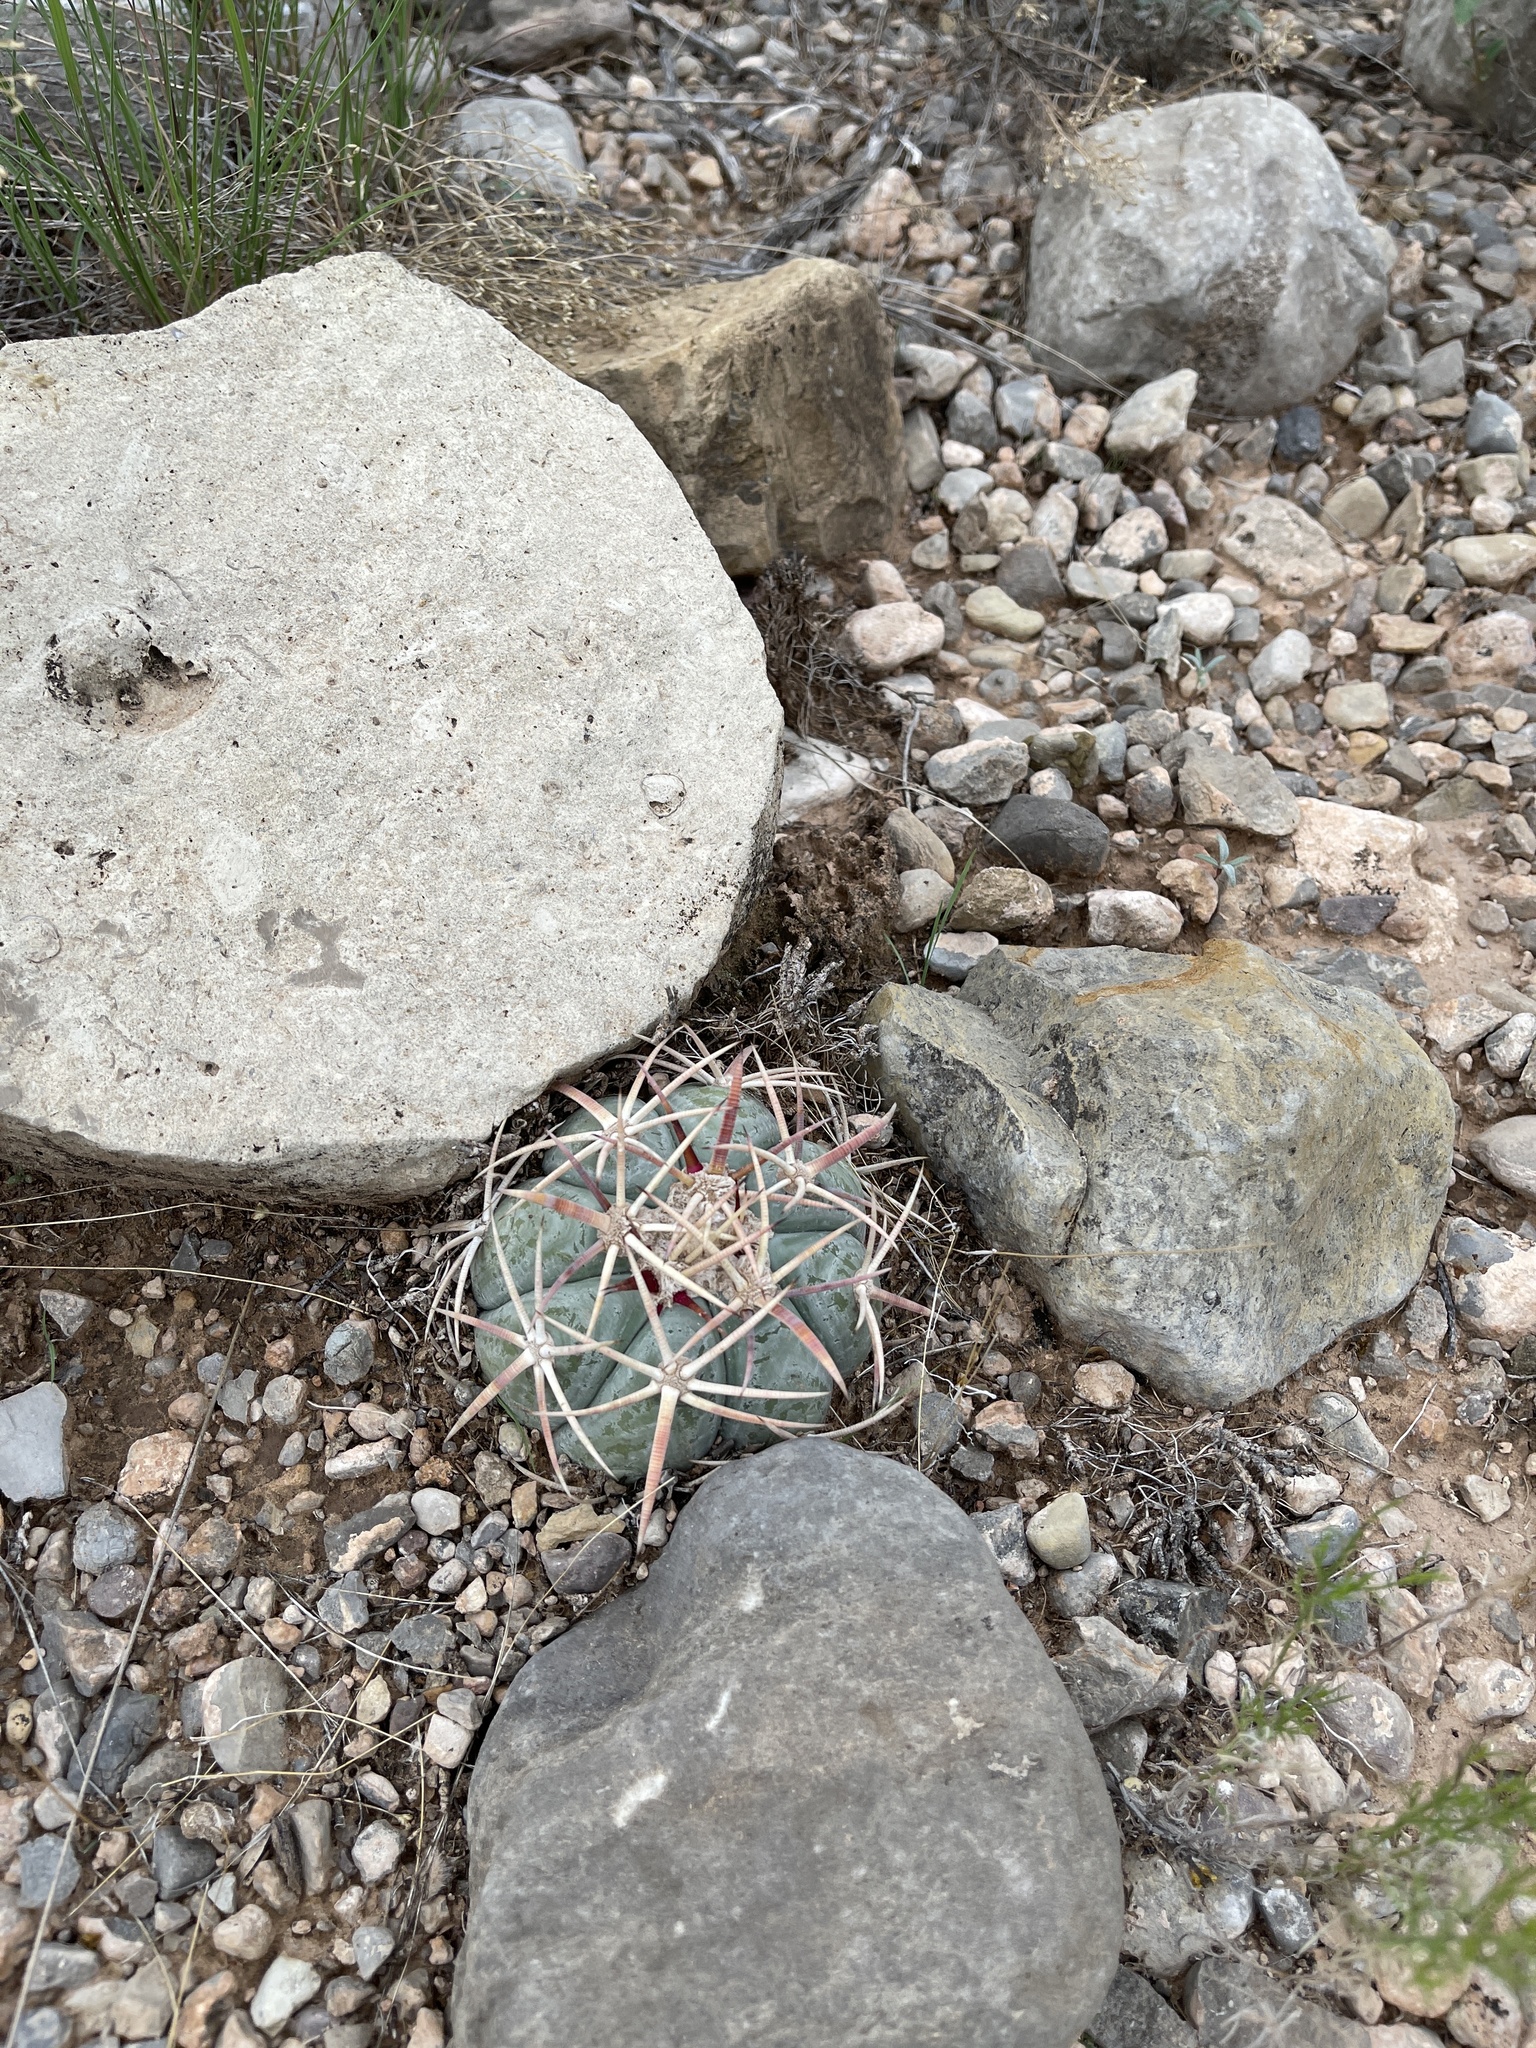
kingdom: Plantae
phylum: Tracheophyta
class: Magnoliopsida
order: Caryophyllales
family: Cactaceae
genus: Echinocactus
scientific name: Echinocactus horizonthalonius
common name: Devilshead
